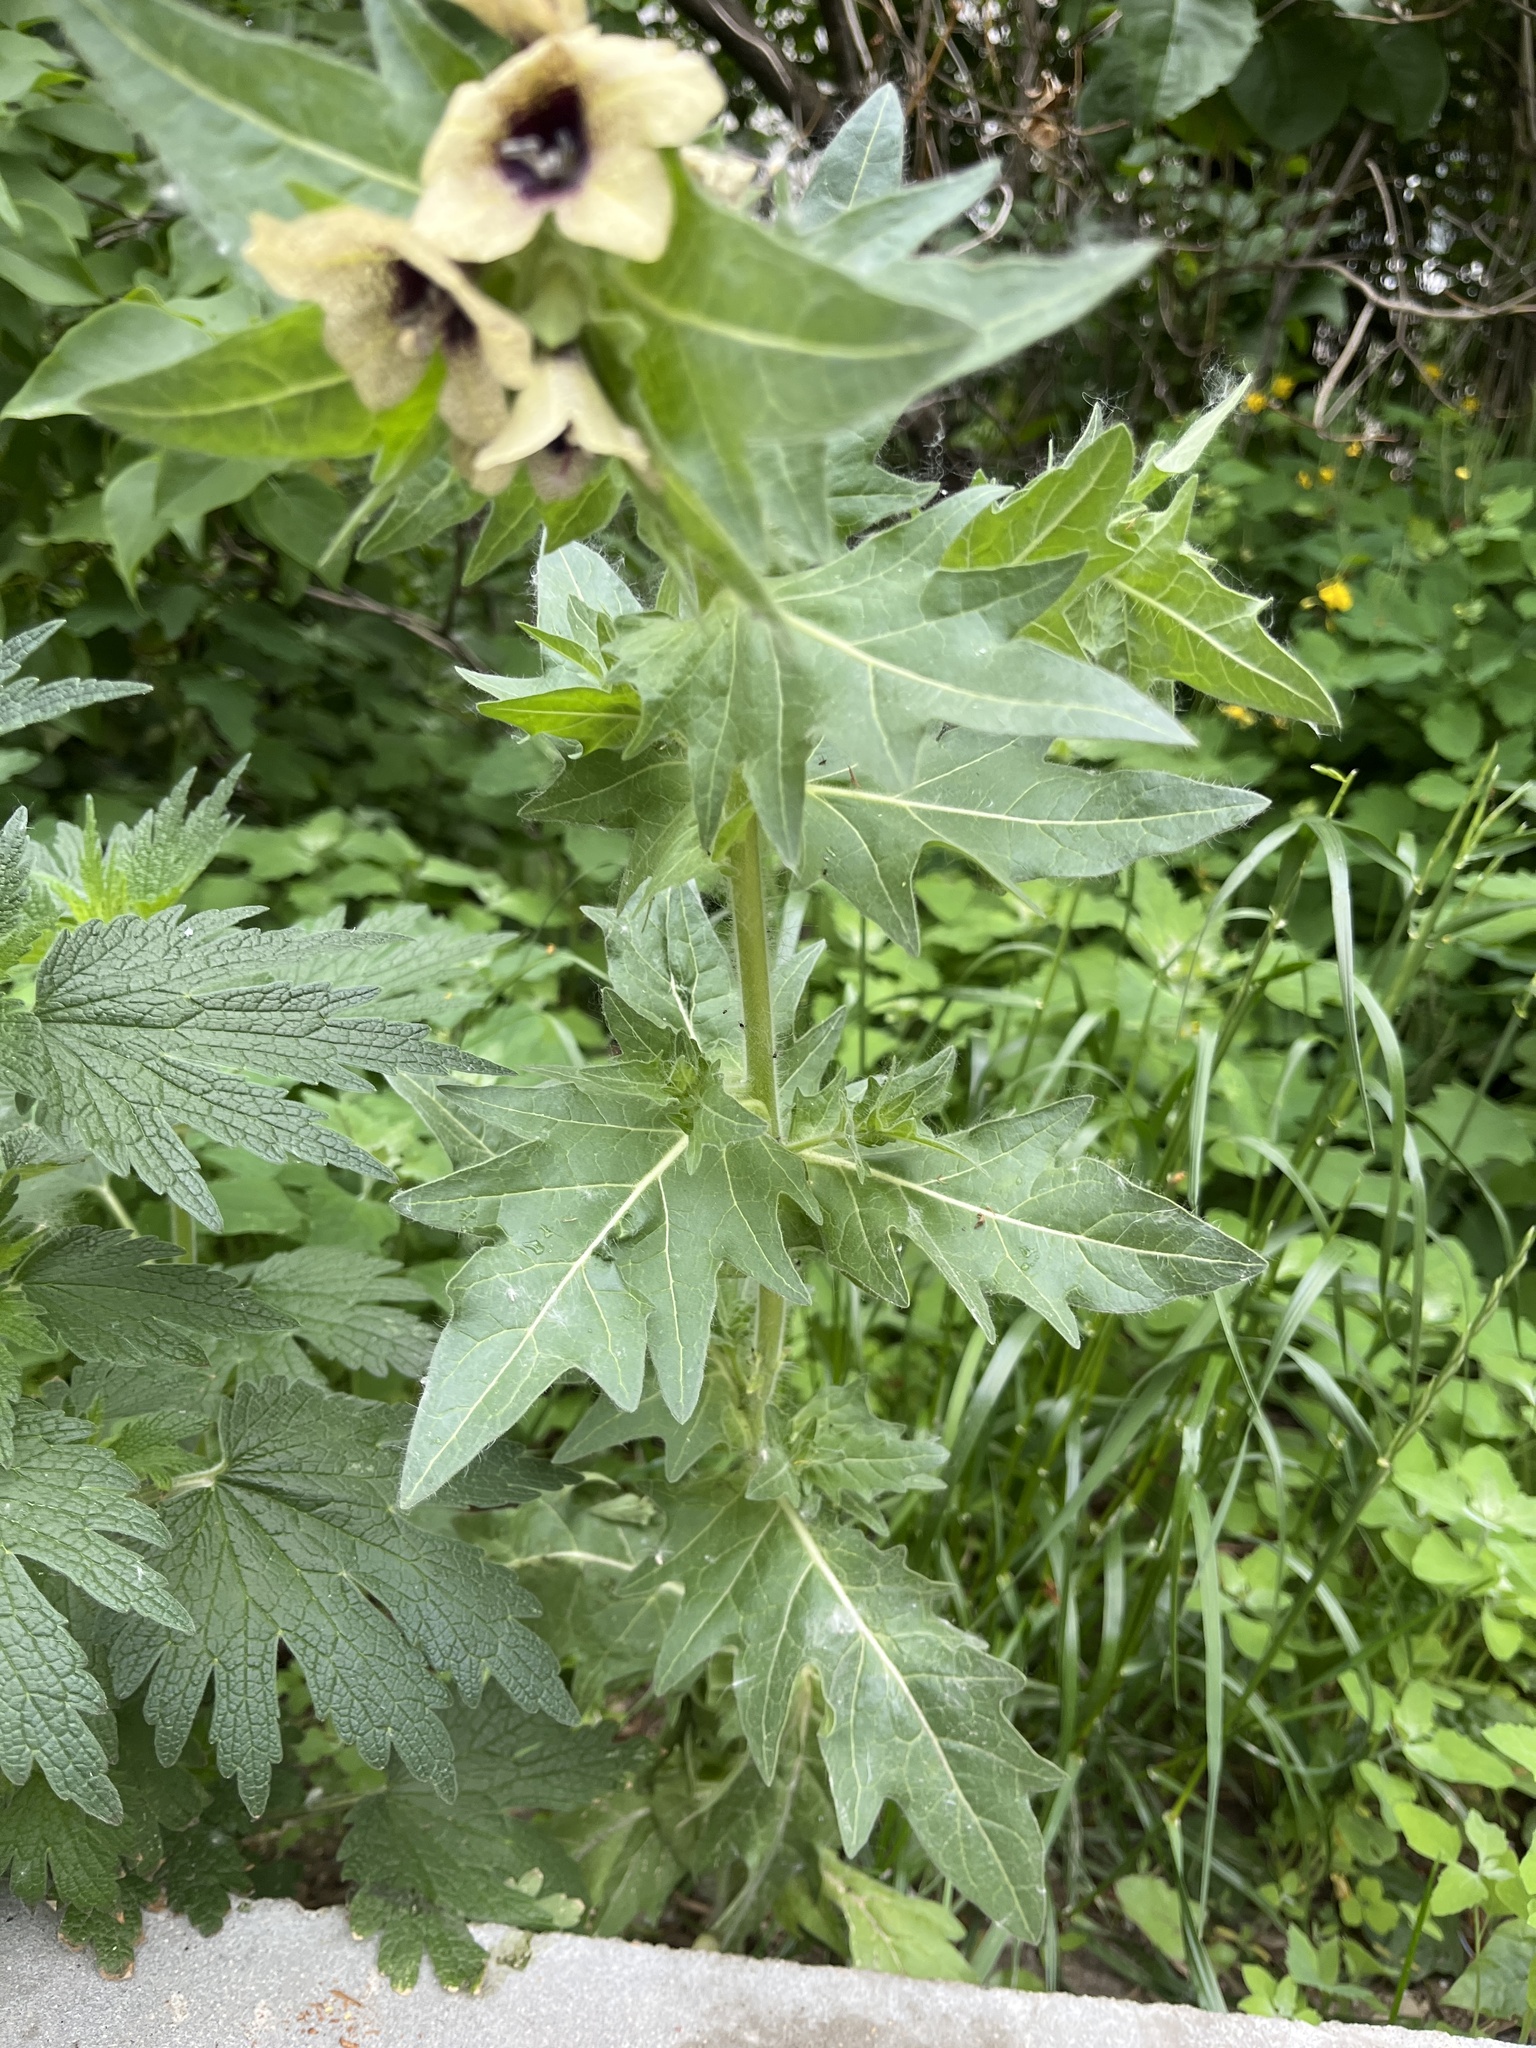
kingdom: Plantae
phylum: Tracheophyta
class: Magnoliopsida
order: Solanales
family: Solanaceae
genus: Hyoscyamus
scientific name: Hyoscyamus niger
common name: Henbane
